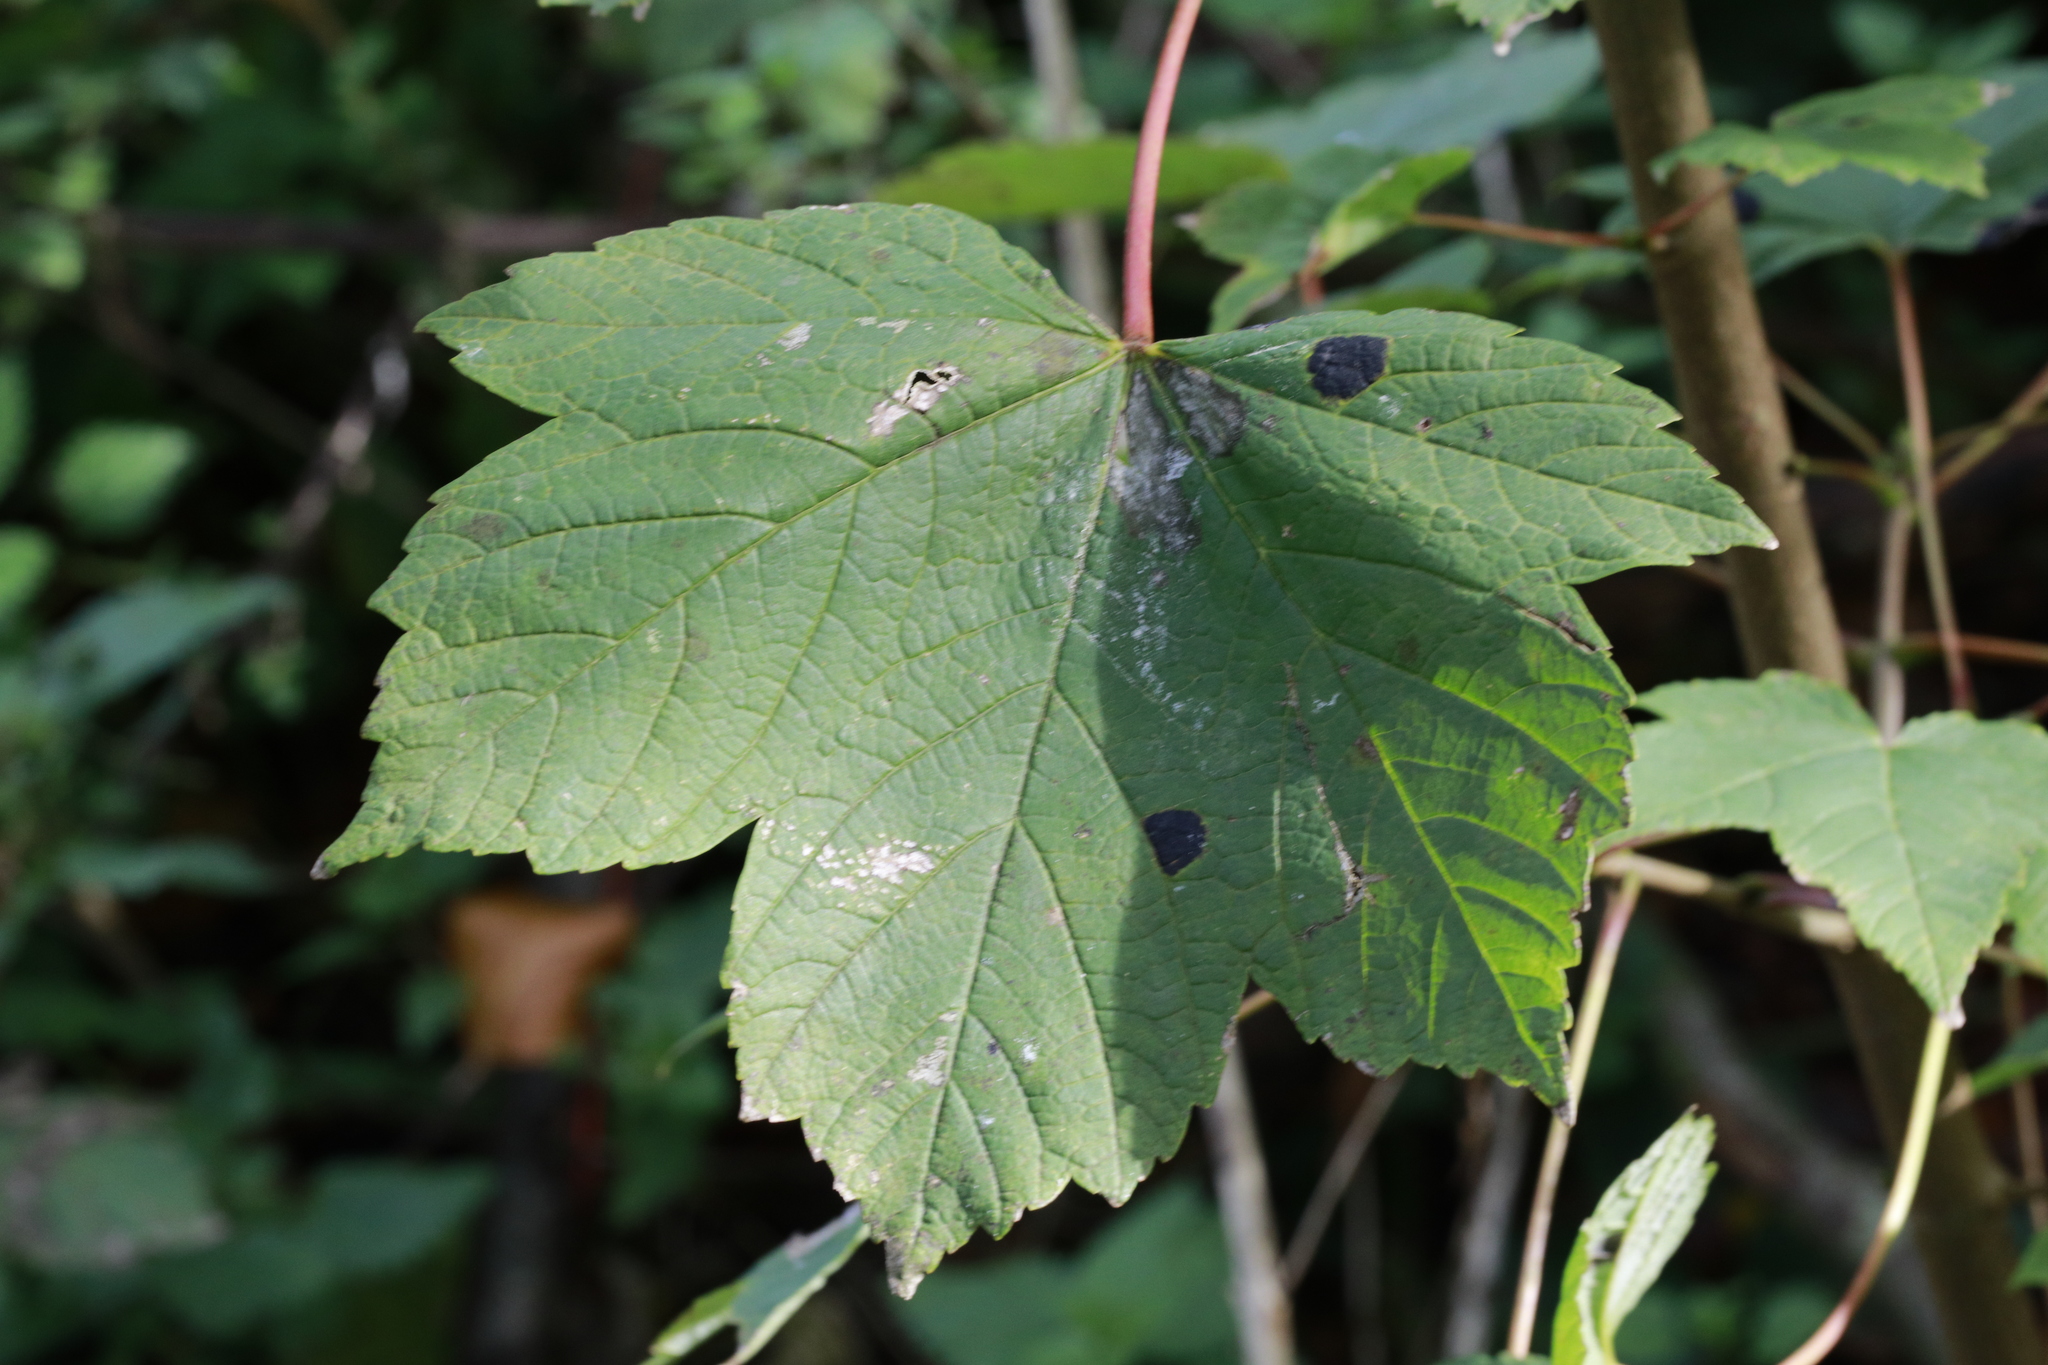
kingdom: Plantae
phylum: Tracheophyta
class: Magnoliopsida
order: Sapindales
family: Sapindaceae
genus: Acer
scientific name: Acer pseudoplatanus
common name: Sycamore
